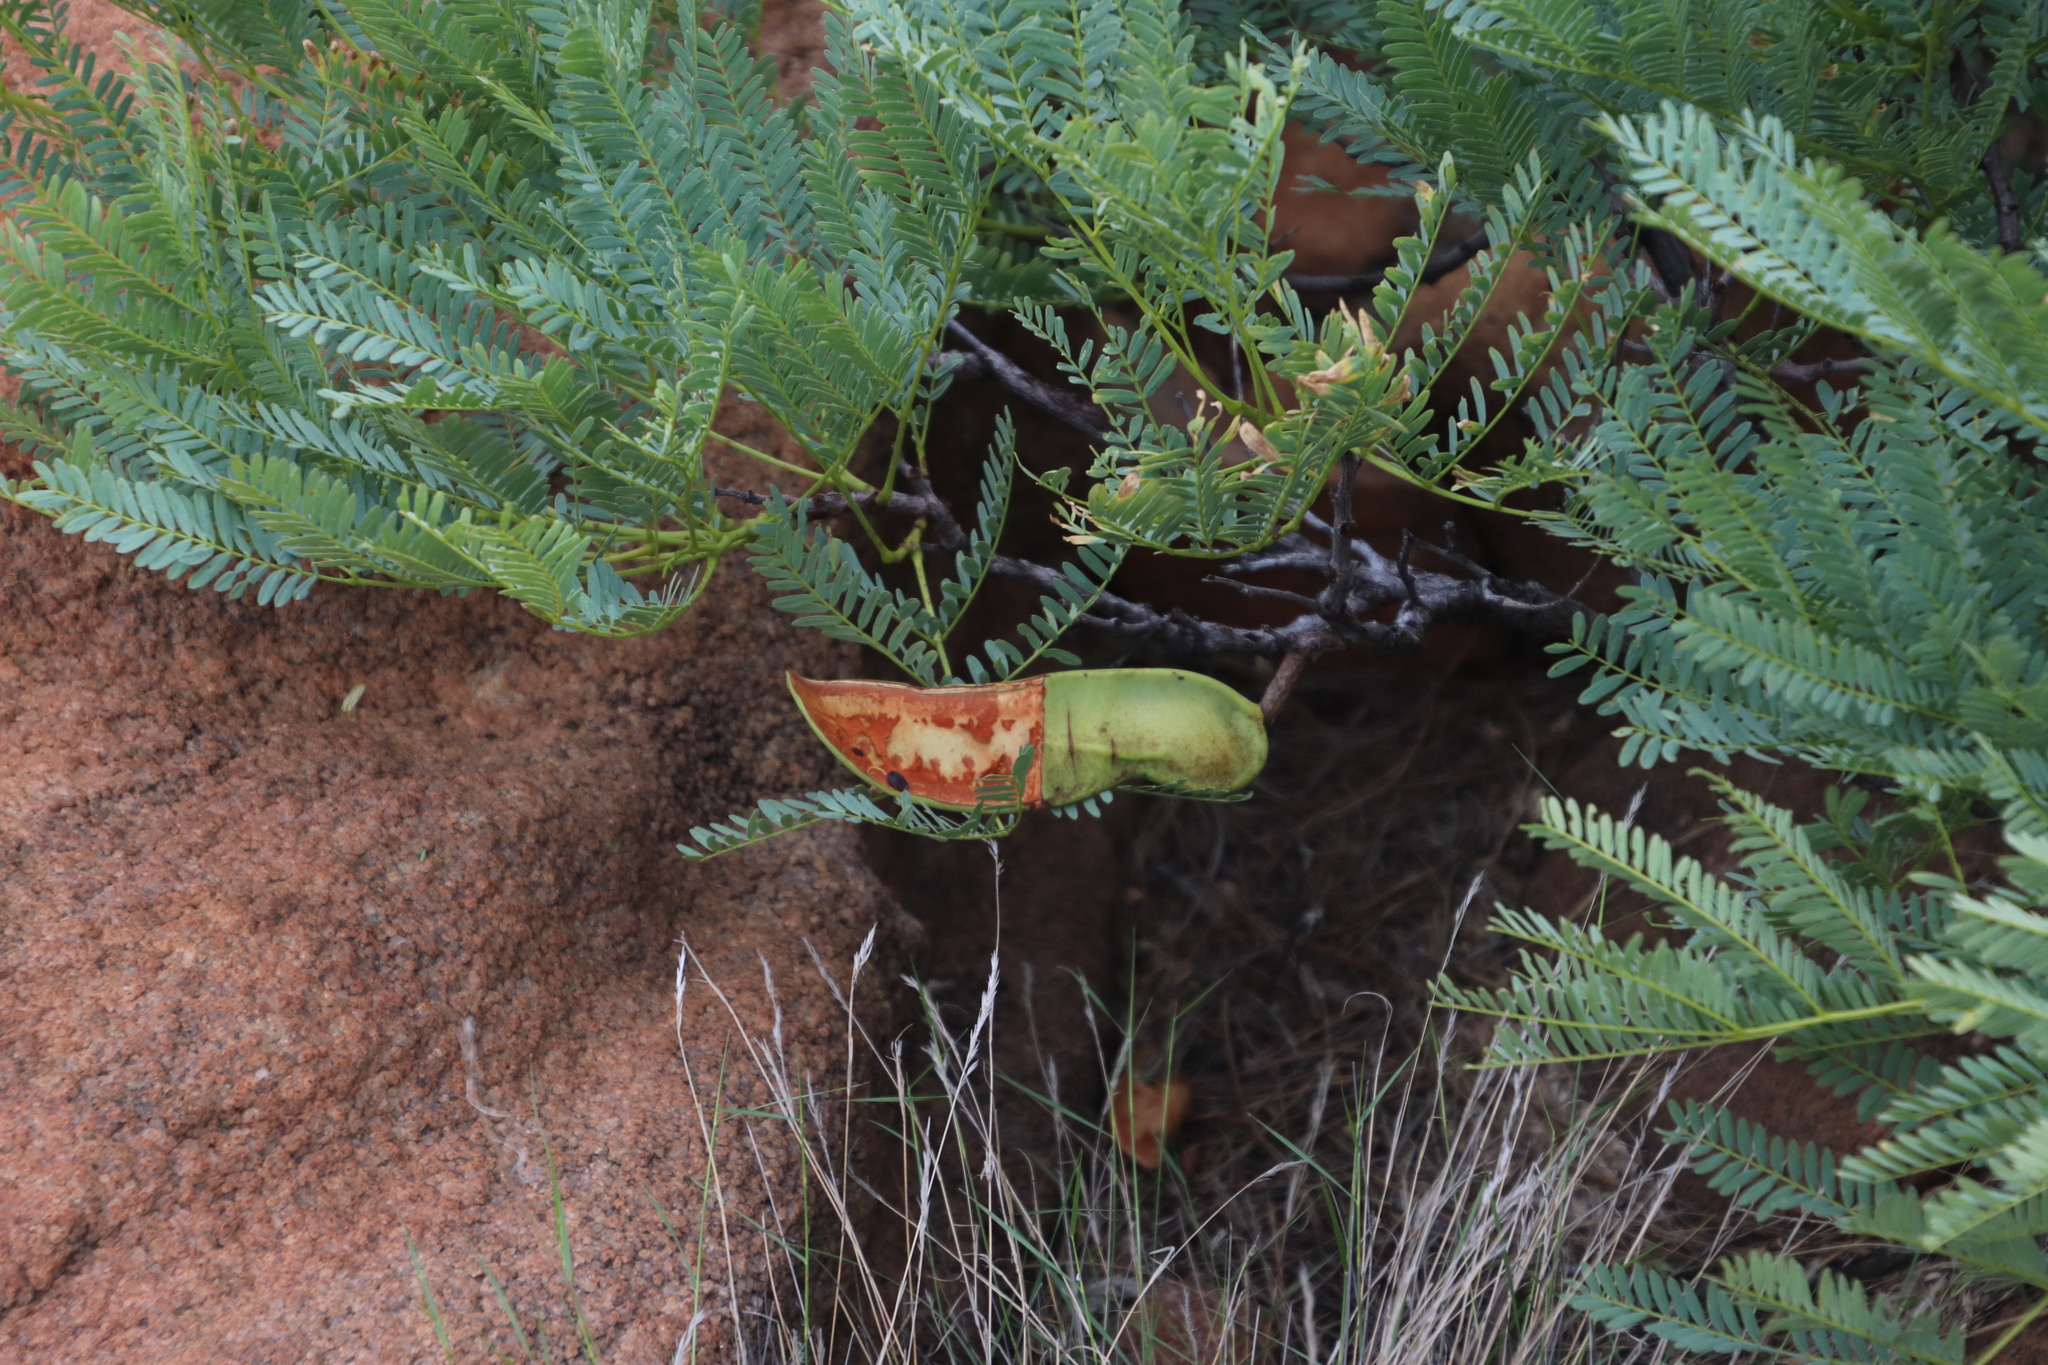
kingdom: Plantae
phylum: Tracheophyta
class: Magnoliopsida
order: Fabales
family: Fabaceae
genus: Elephantorrhiza
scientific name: Elephantorrhiza burkei
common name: Broad-pod elephant-root
